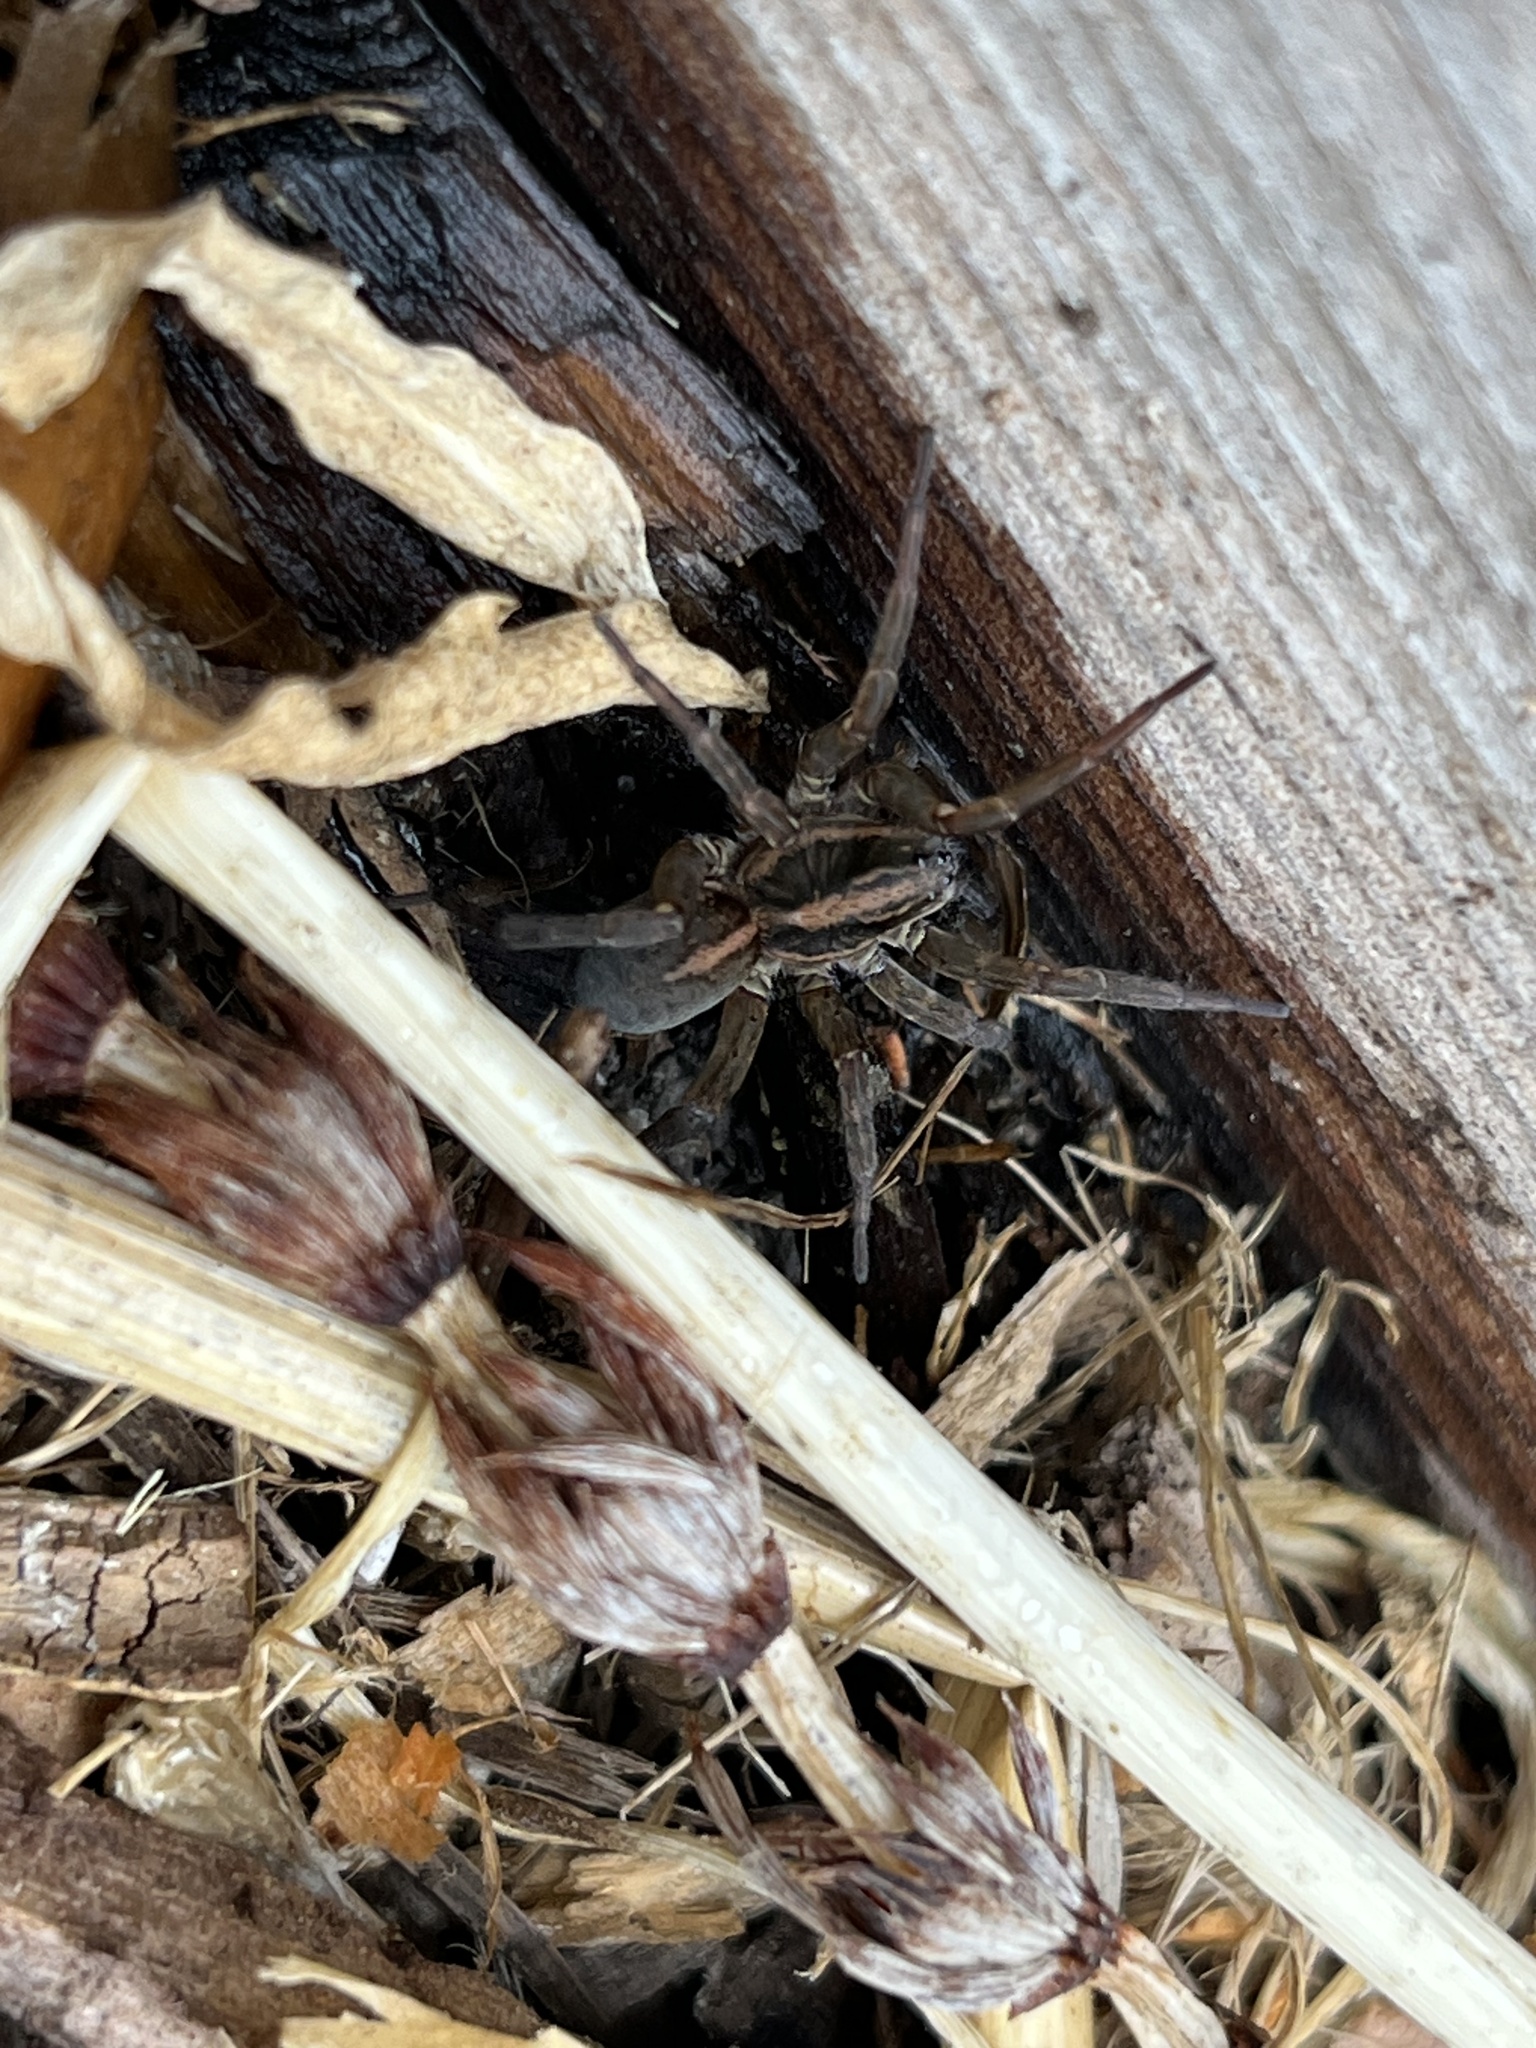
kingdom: Animalia
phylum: Arthropoda
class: Arachnida
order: Araneae
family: Lycosidae
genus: Trochosa
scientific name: Trochosa ruricola
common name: Spider
